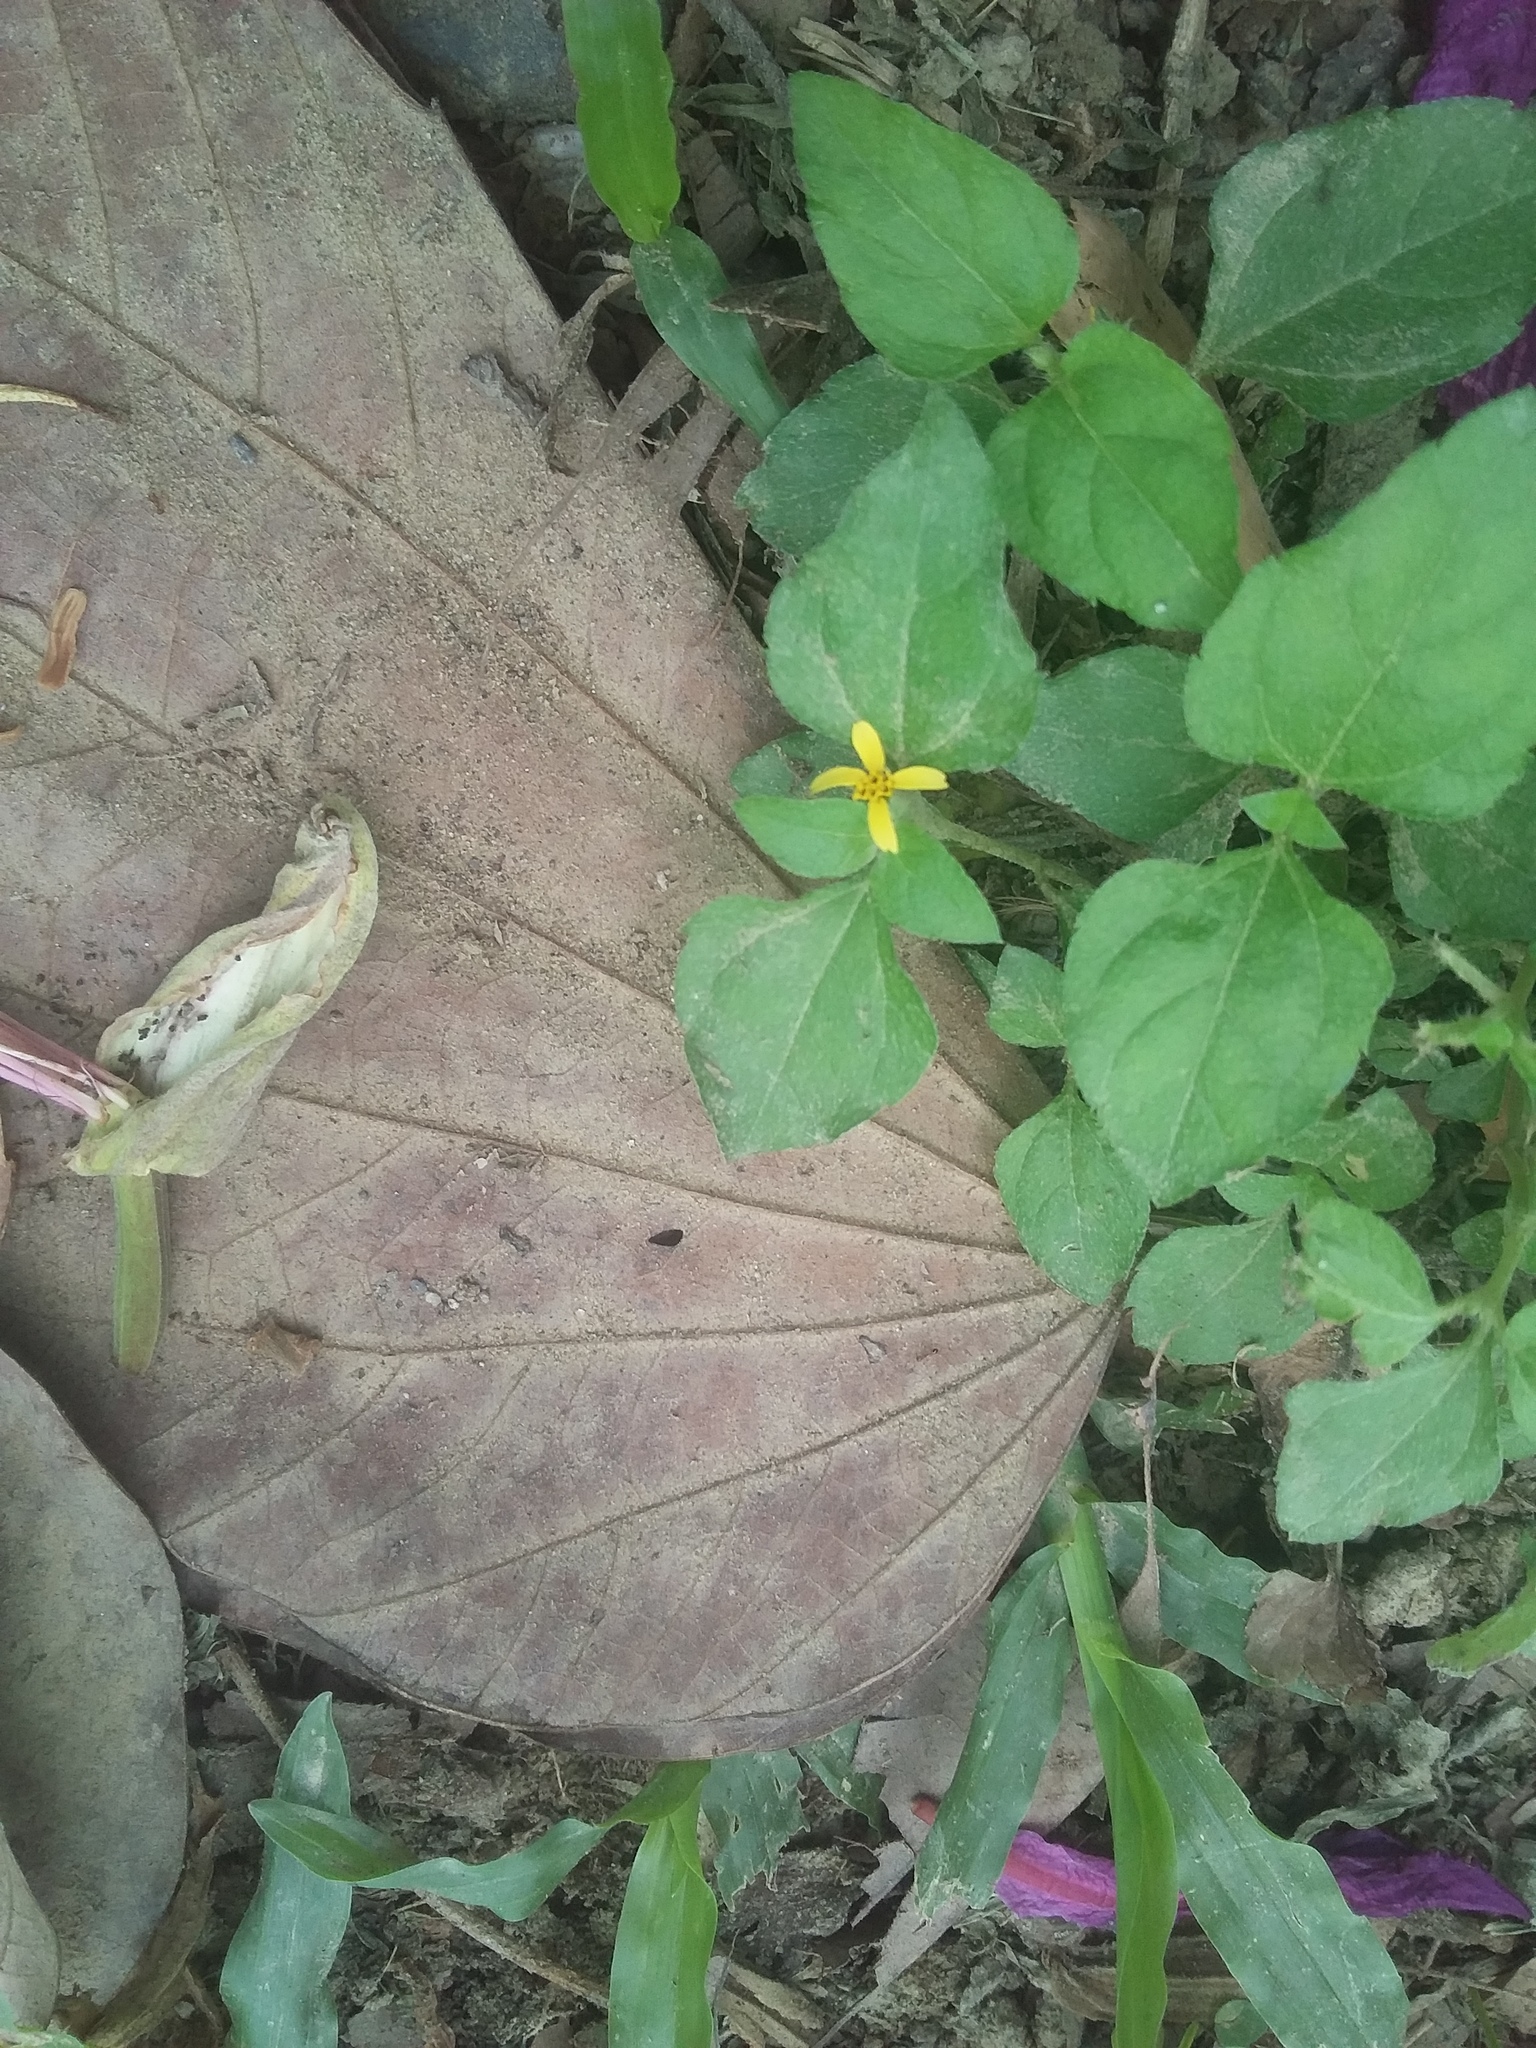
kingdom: Plantae
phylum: Tracheophyta
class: Magnoliopsida
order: Asterales
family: Asteraceae
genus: Calyptocarpus
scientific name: Calyptocarpus vialis
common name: Straggler daisy
